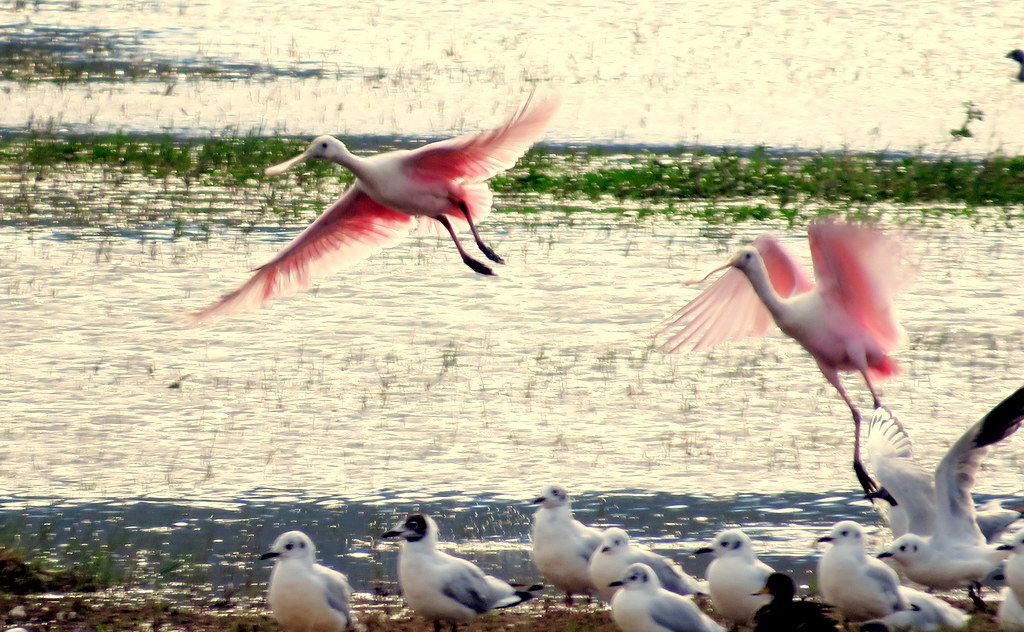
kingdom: Animalia
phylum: Chordata
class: Aves
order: Pelecaniformes
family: Threskiornithidae
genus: Platalea
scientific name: Platalea ajaja
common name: Roseate spoonbill
